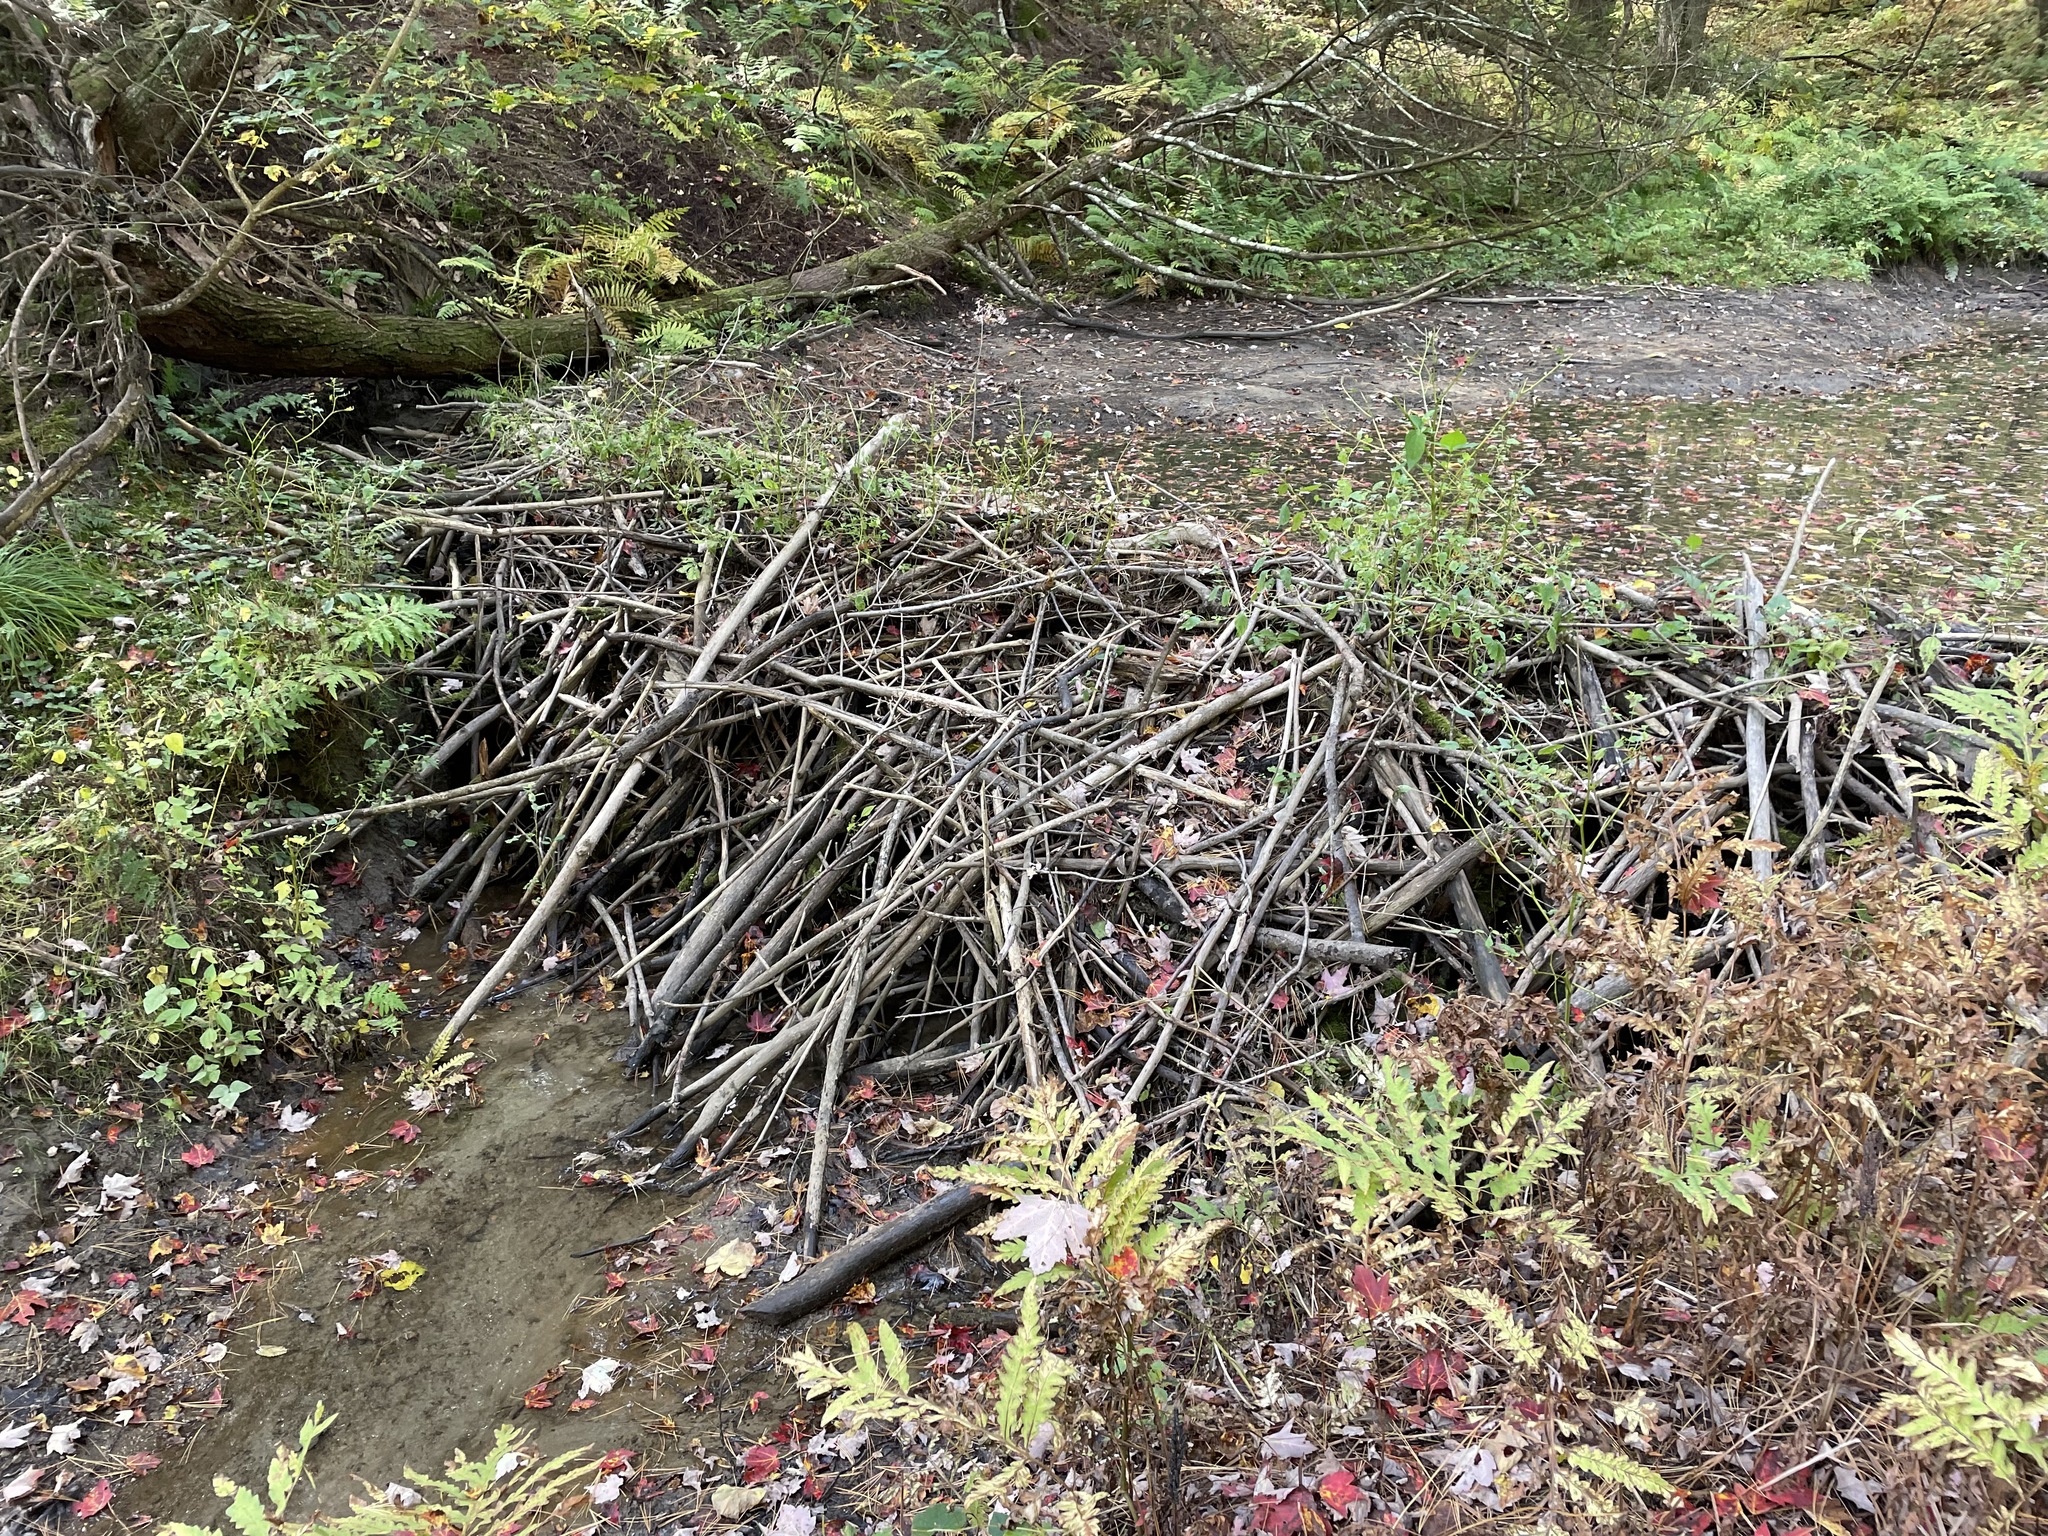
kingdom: Animalia
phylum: Chordata
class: Mammalia
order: Rodentia
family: Castoridae
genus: Castor
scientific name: Castor canadensis
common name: American beaver
